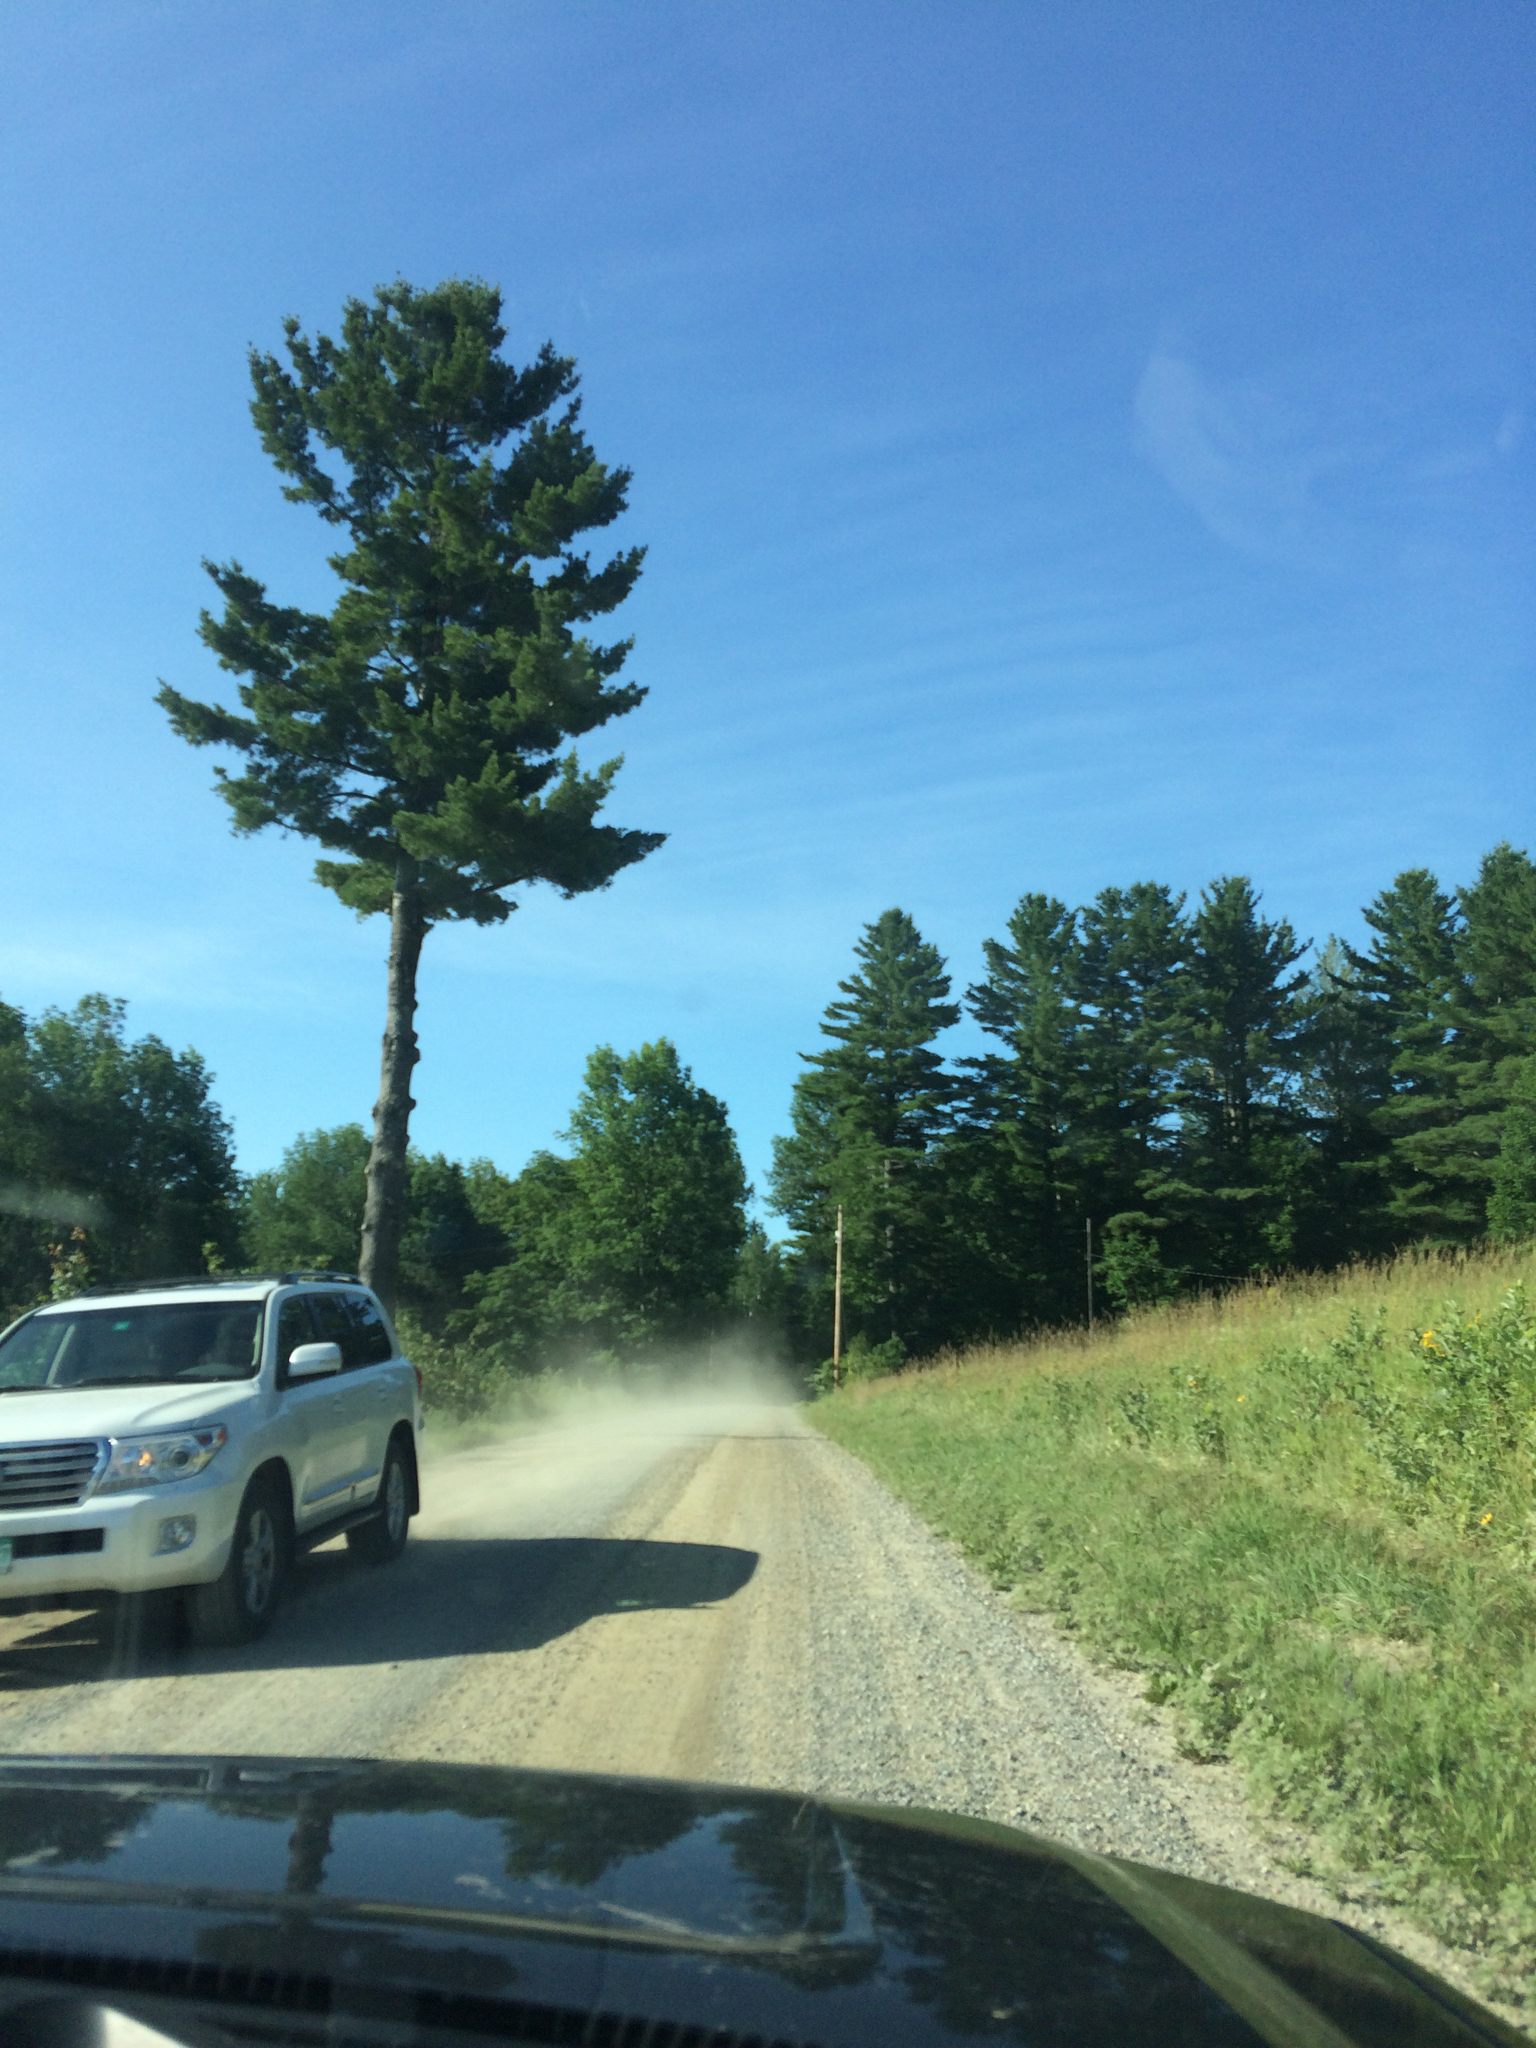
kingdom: Plantae
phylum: Tracheophyta
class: Pinopsida
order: Pinales
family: Pinaceae
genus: Pinus
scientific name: Pinus strobus
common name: Weymouth pine
